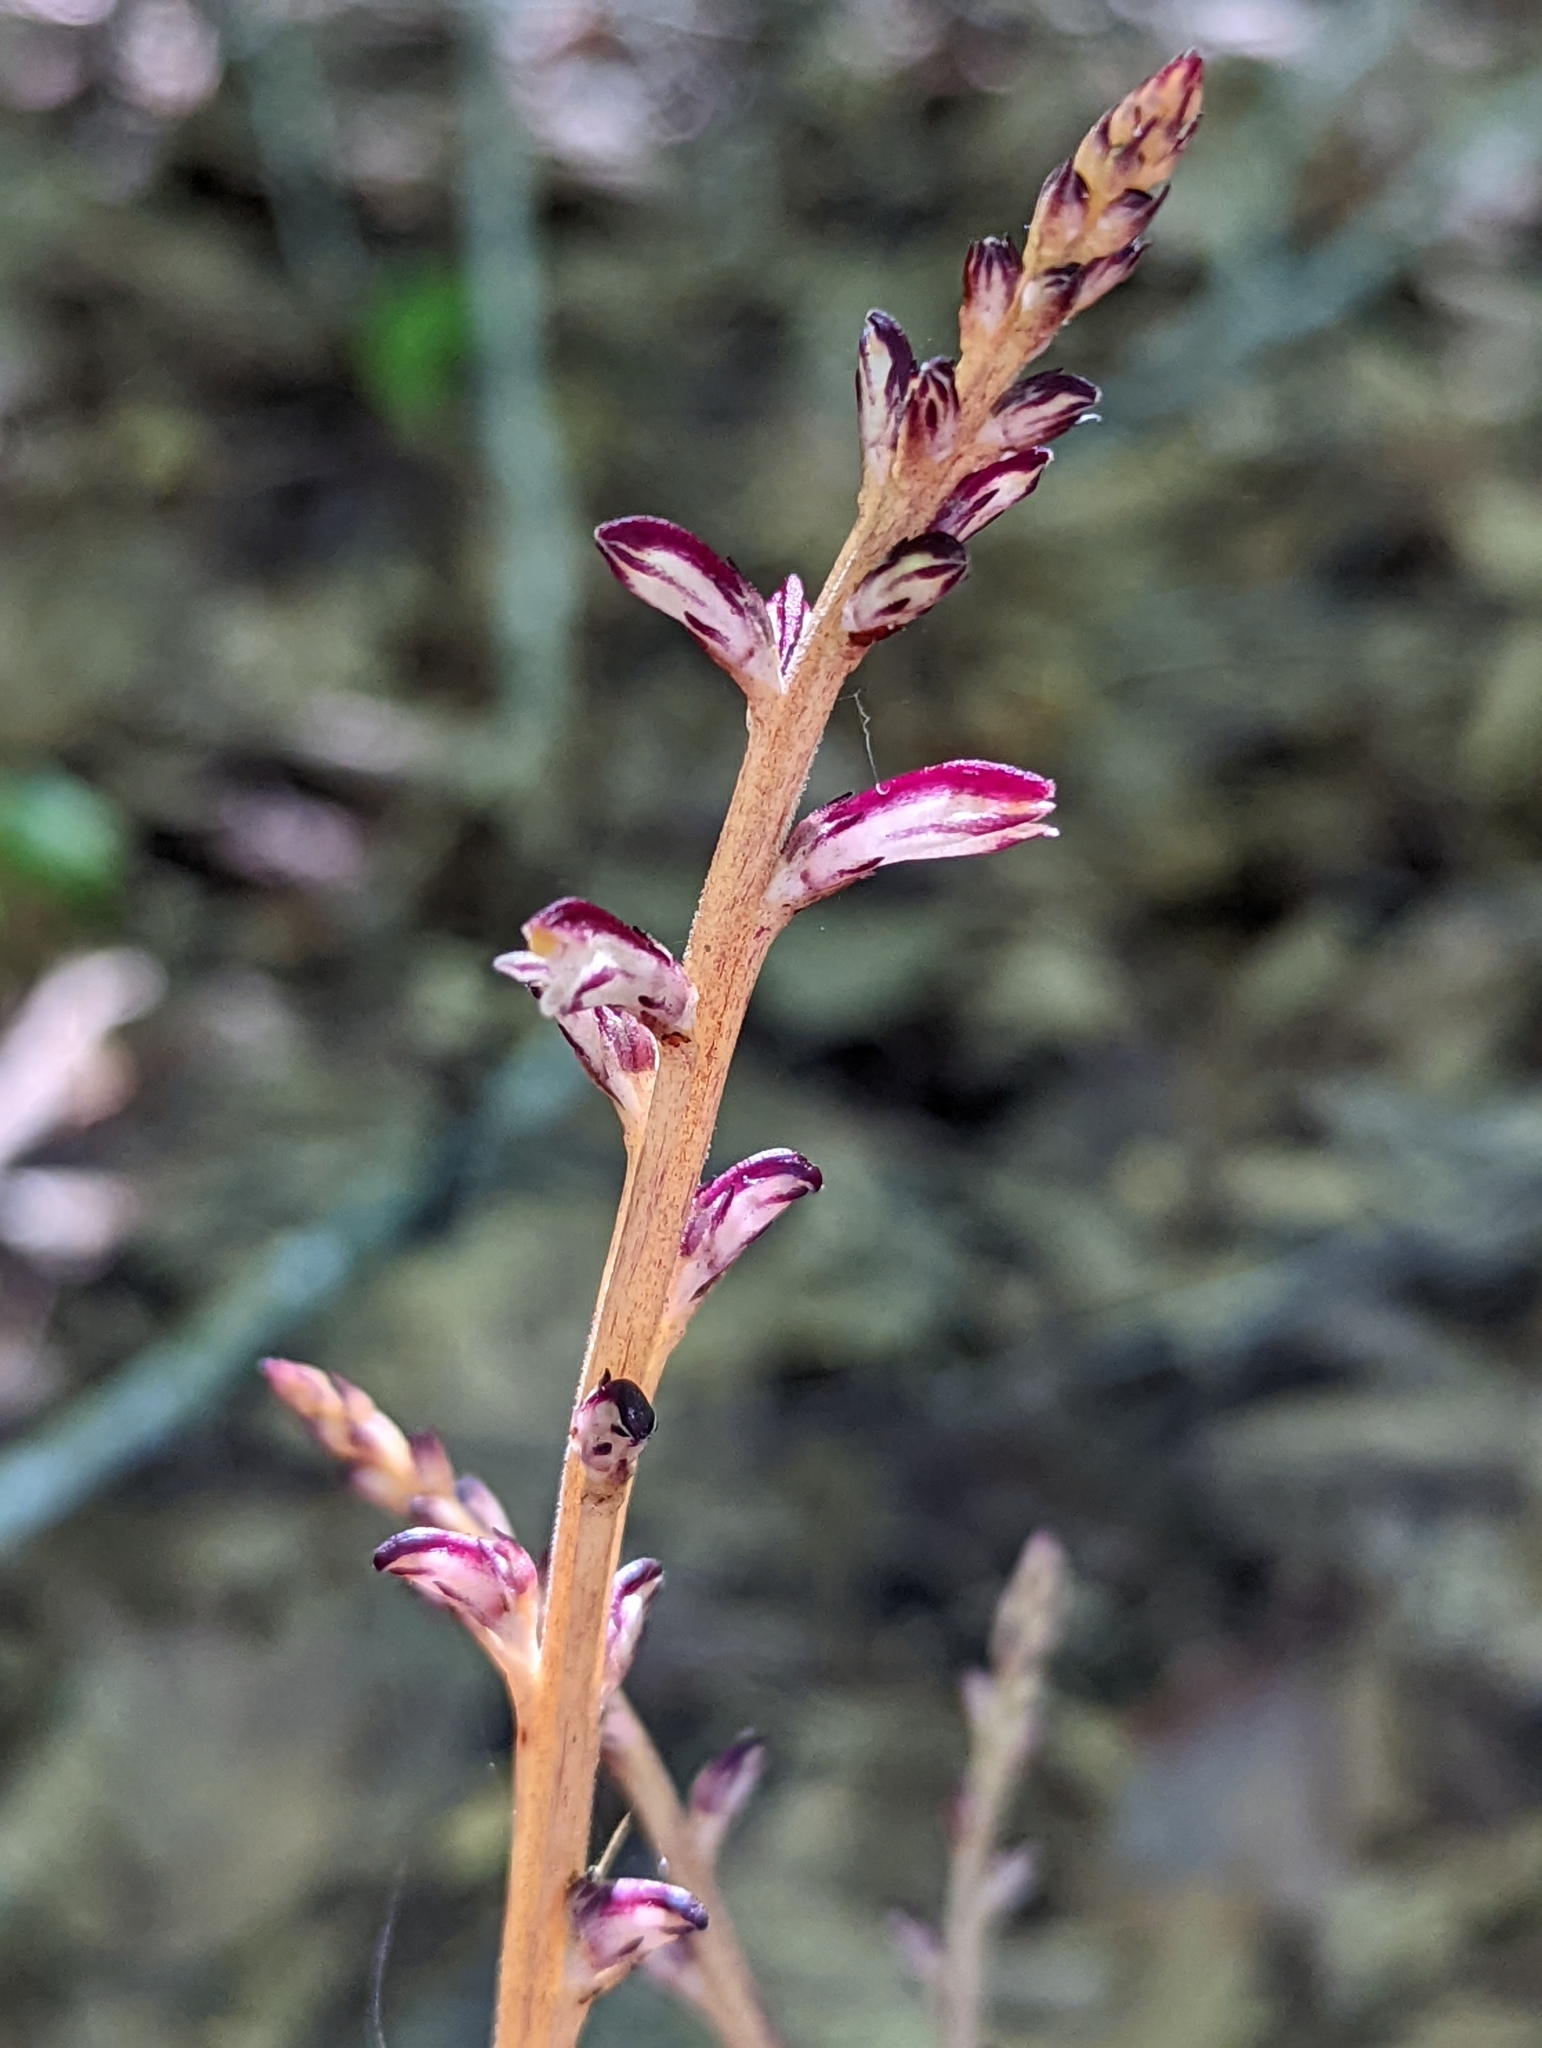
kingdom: Plantae
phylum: Tracheophyta
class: Magnoliopsida
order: Lamiales
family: Orobanchaceae
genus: Epifagus
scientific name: Epifagus virginiana
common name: Beechdrops
